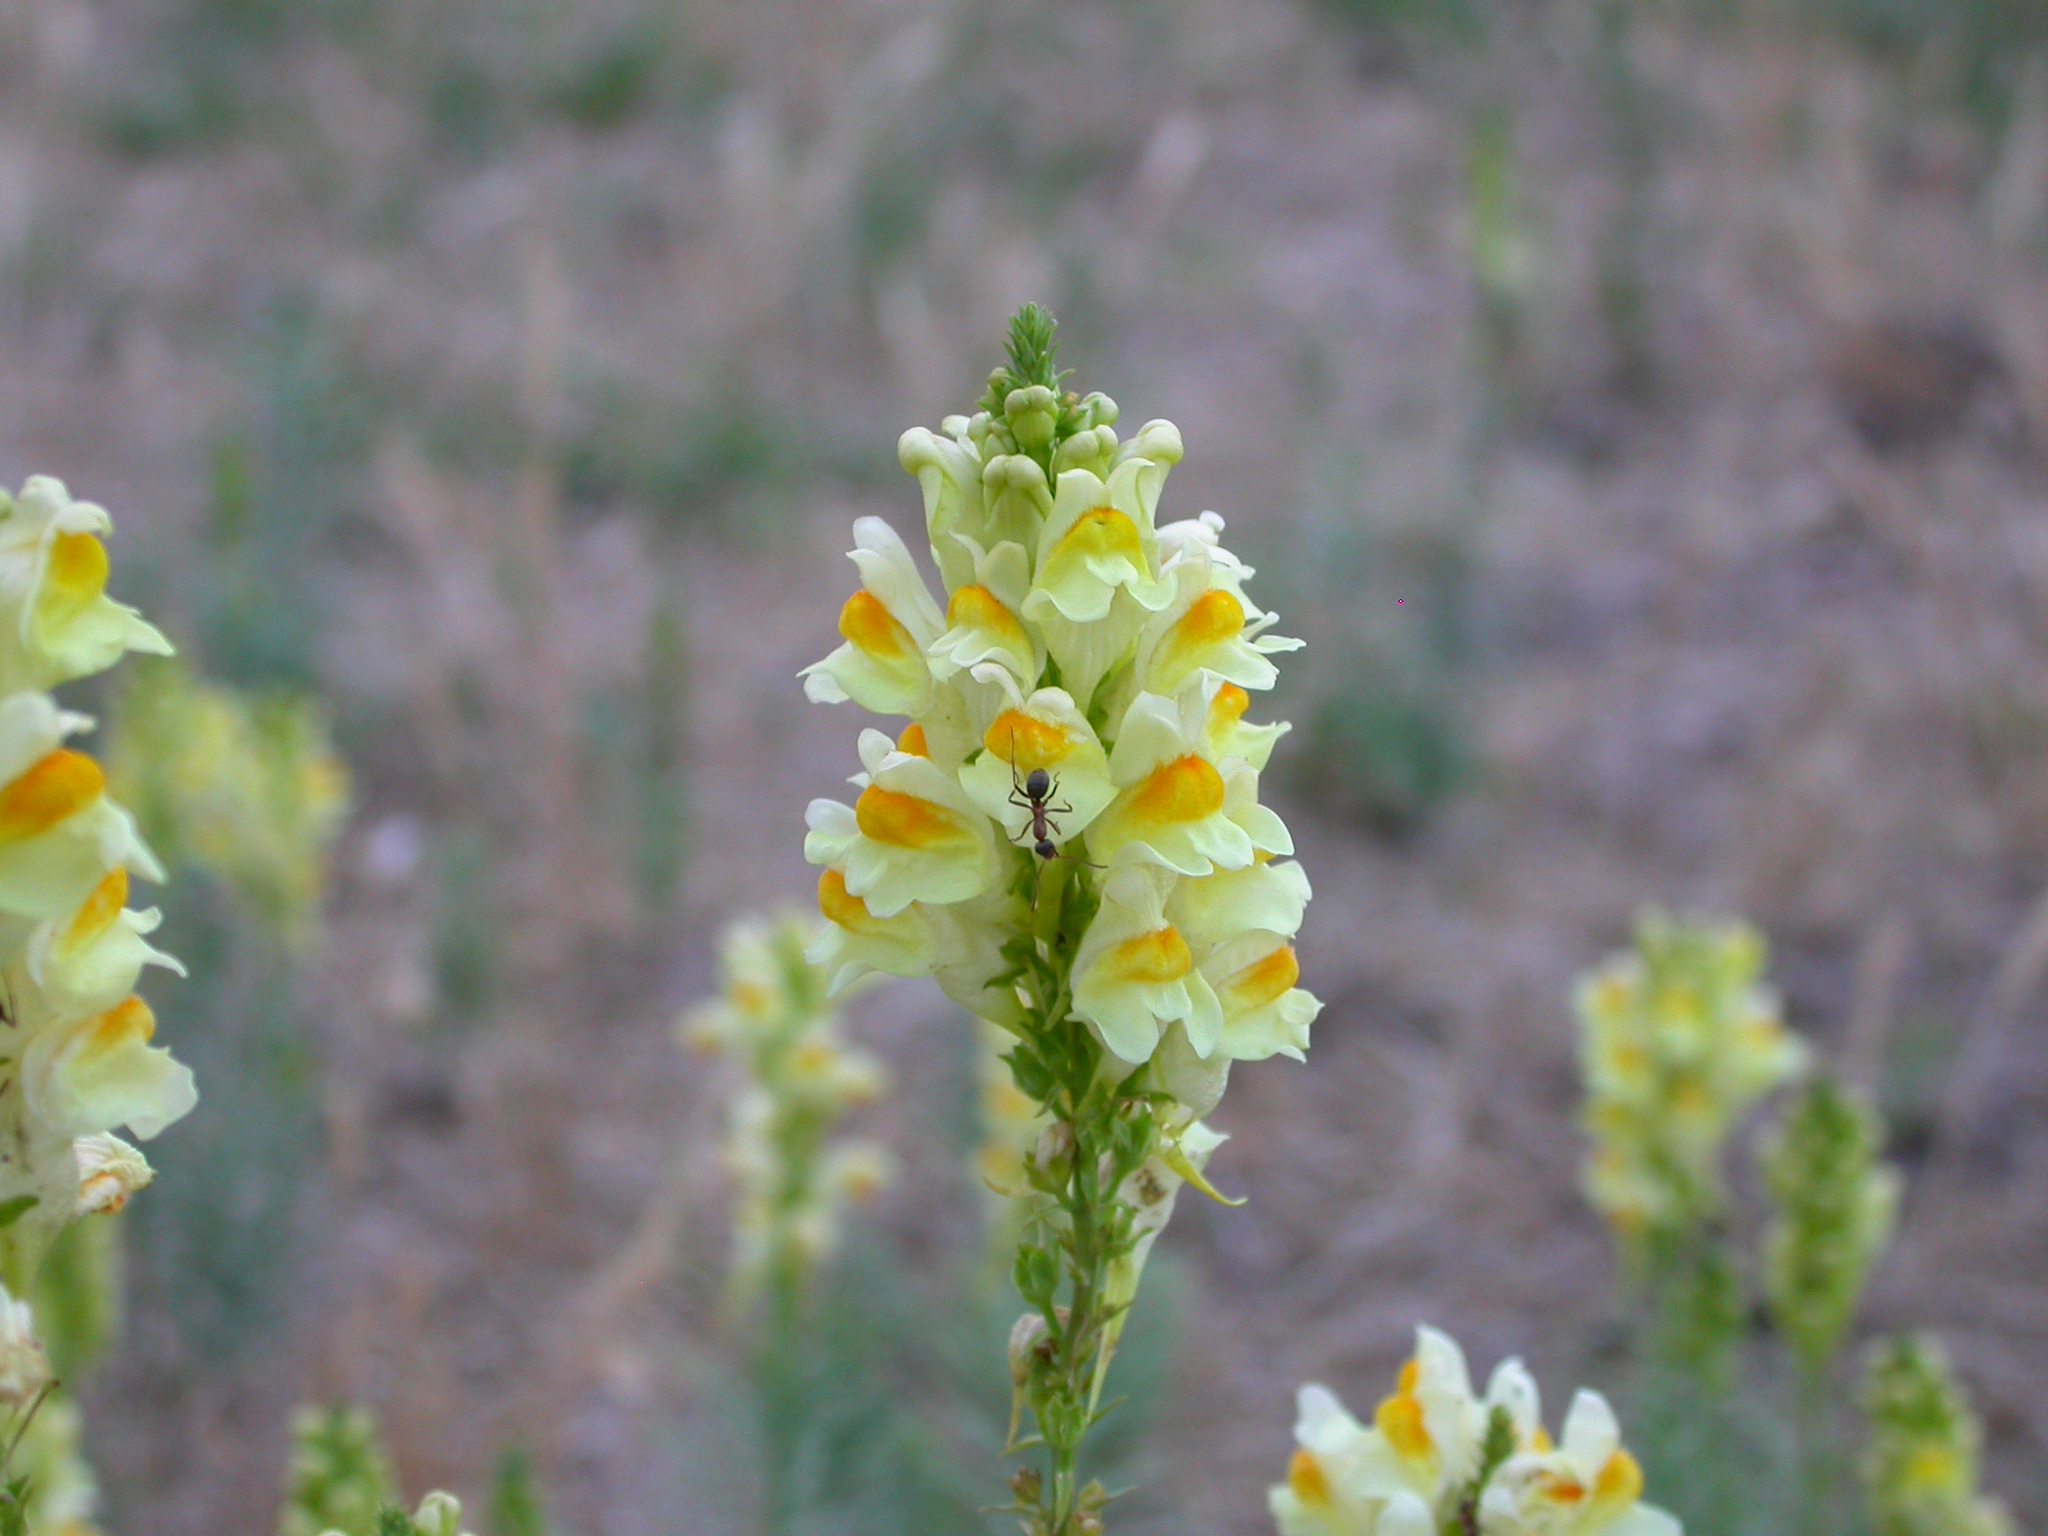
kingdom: Plantae
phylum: Tracheophyta
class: Magnoliopsida
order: Lamiales
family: Plantaginaceae
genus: Linaria
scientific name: Linaria vulgaris
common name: Butter and eggs
